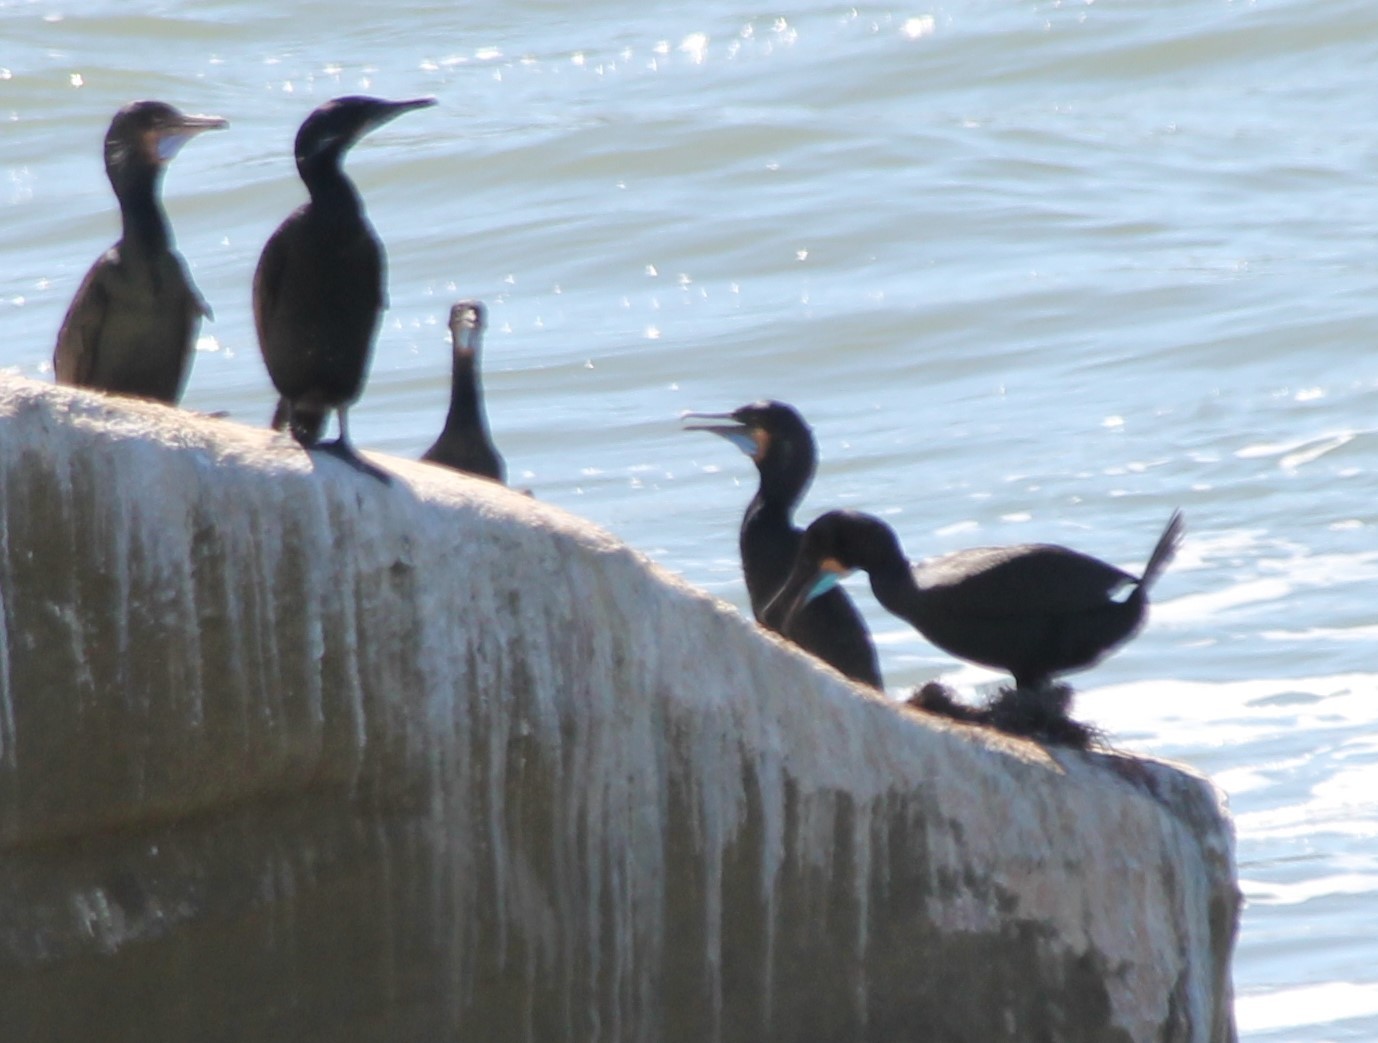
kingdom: Animalia
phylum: Chordata
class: Aves
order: Suliformes
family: Phalacrocoracidae
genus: Urile
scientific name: Urile penicillatus
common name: Brandt's cormorant
